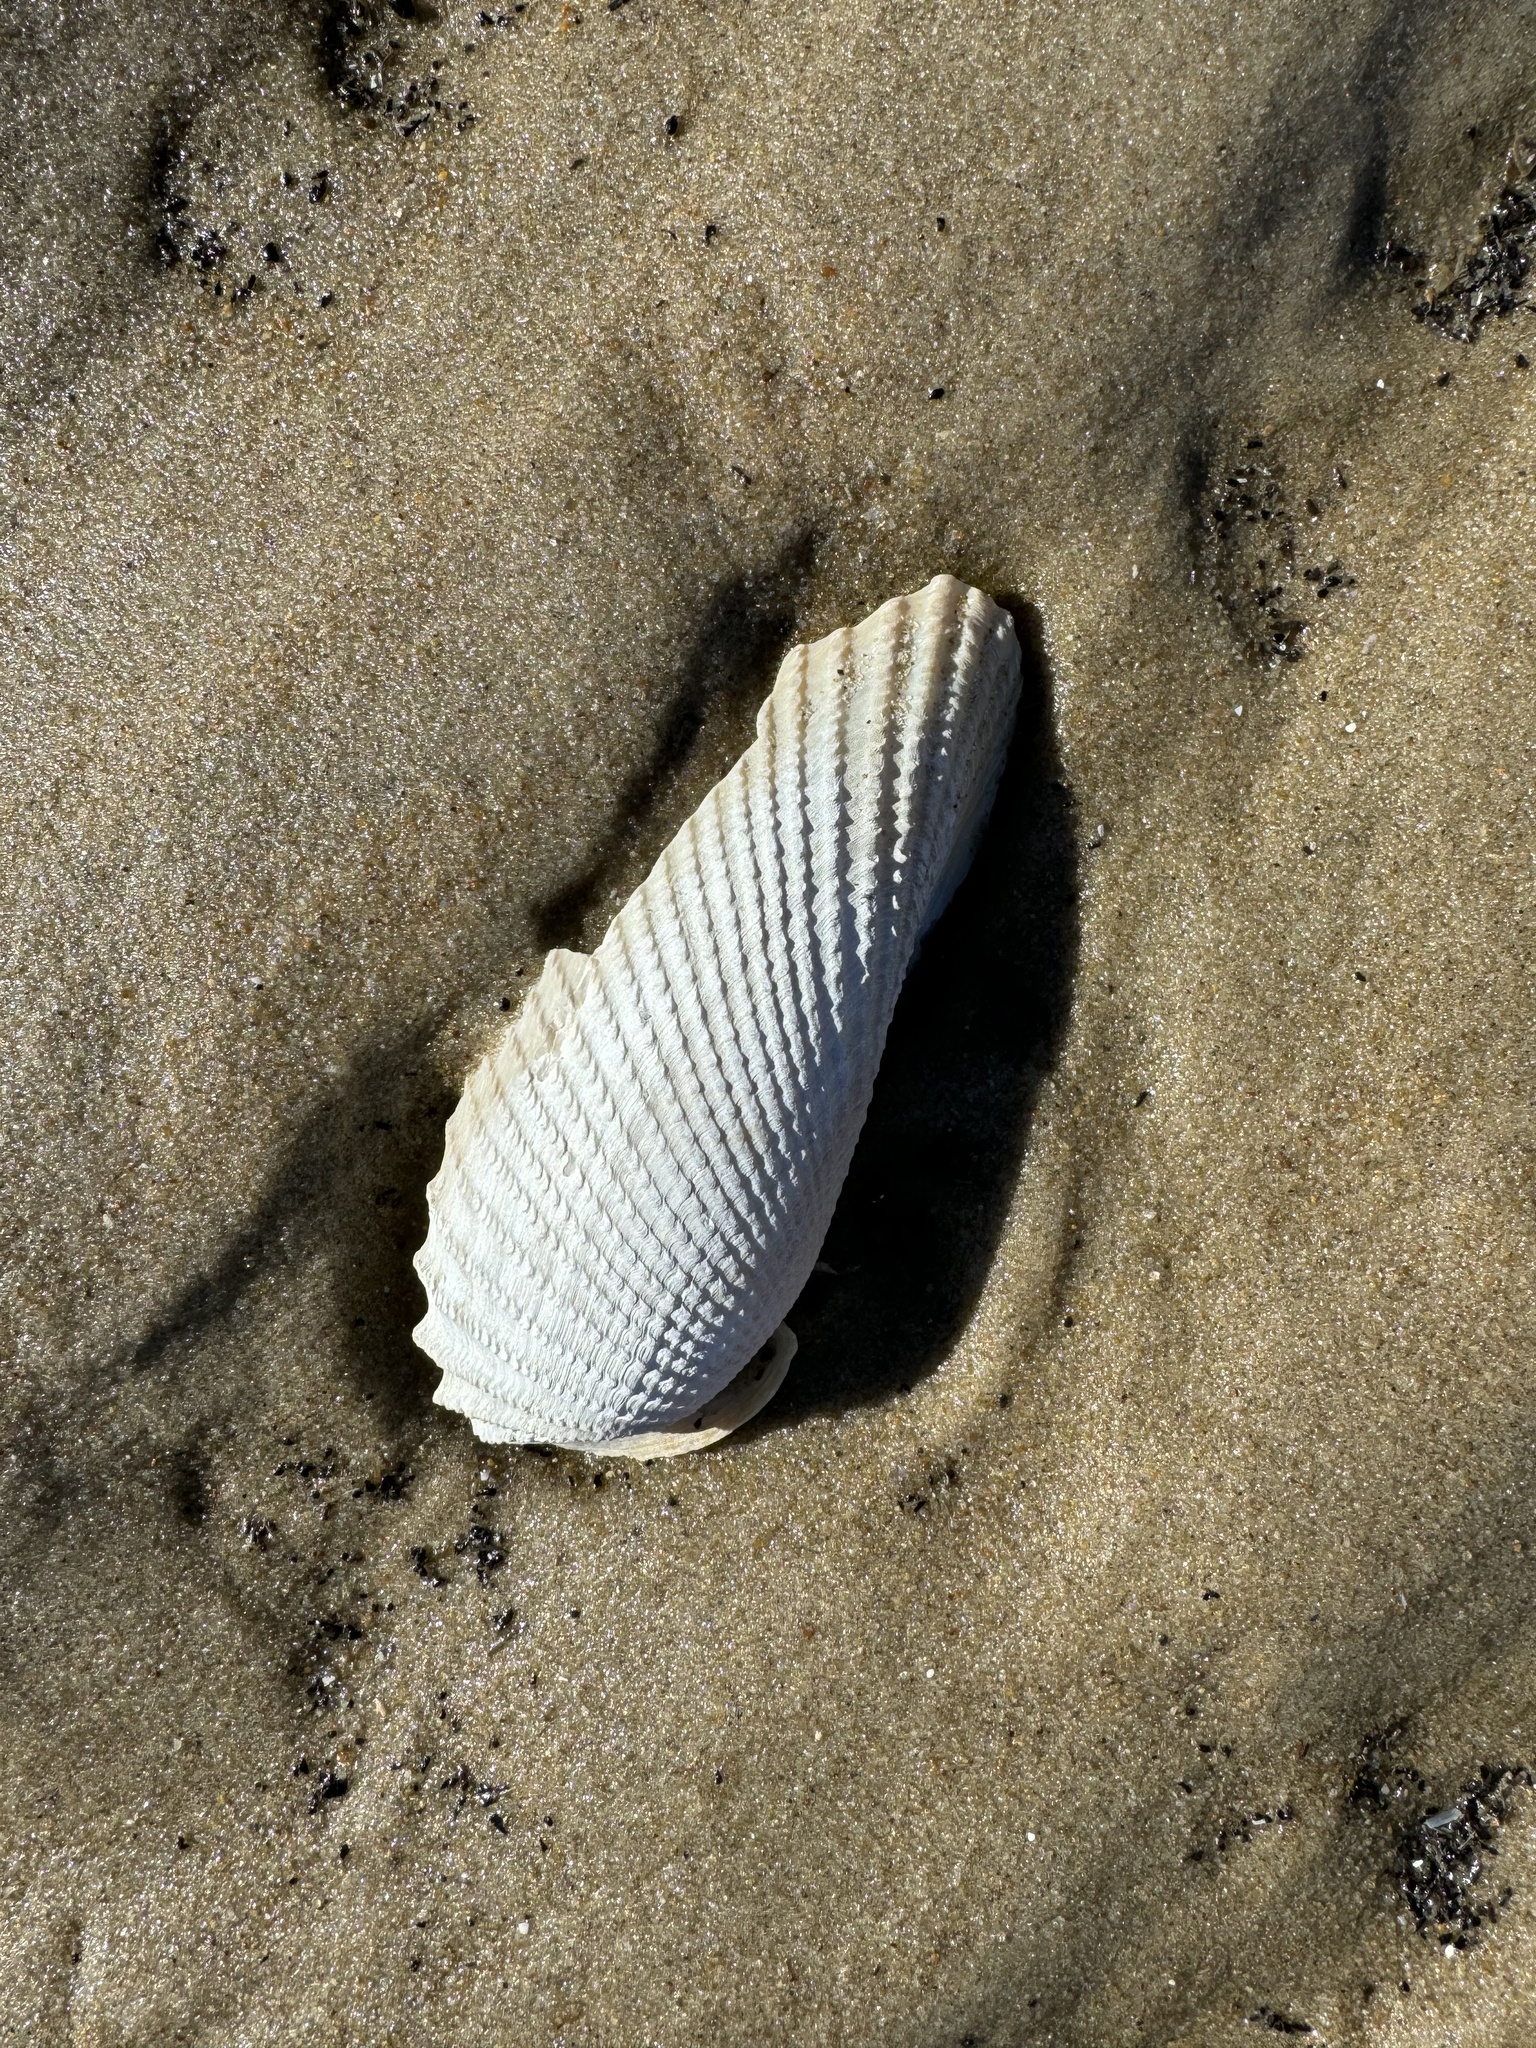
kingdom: Animalia
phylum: Mollusca
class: Bivalvia
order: Myida
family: Pholadidae
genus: Cyrtopleura
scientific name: Cyrtopleura costata
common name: Angel wing
